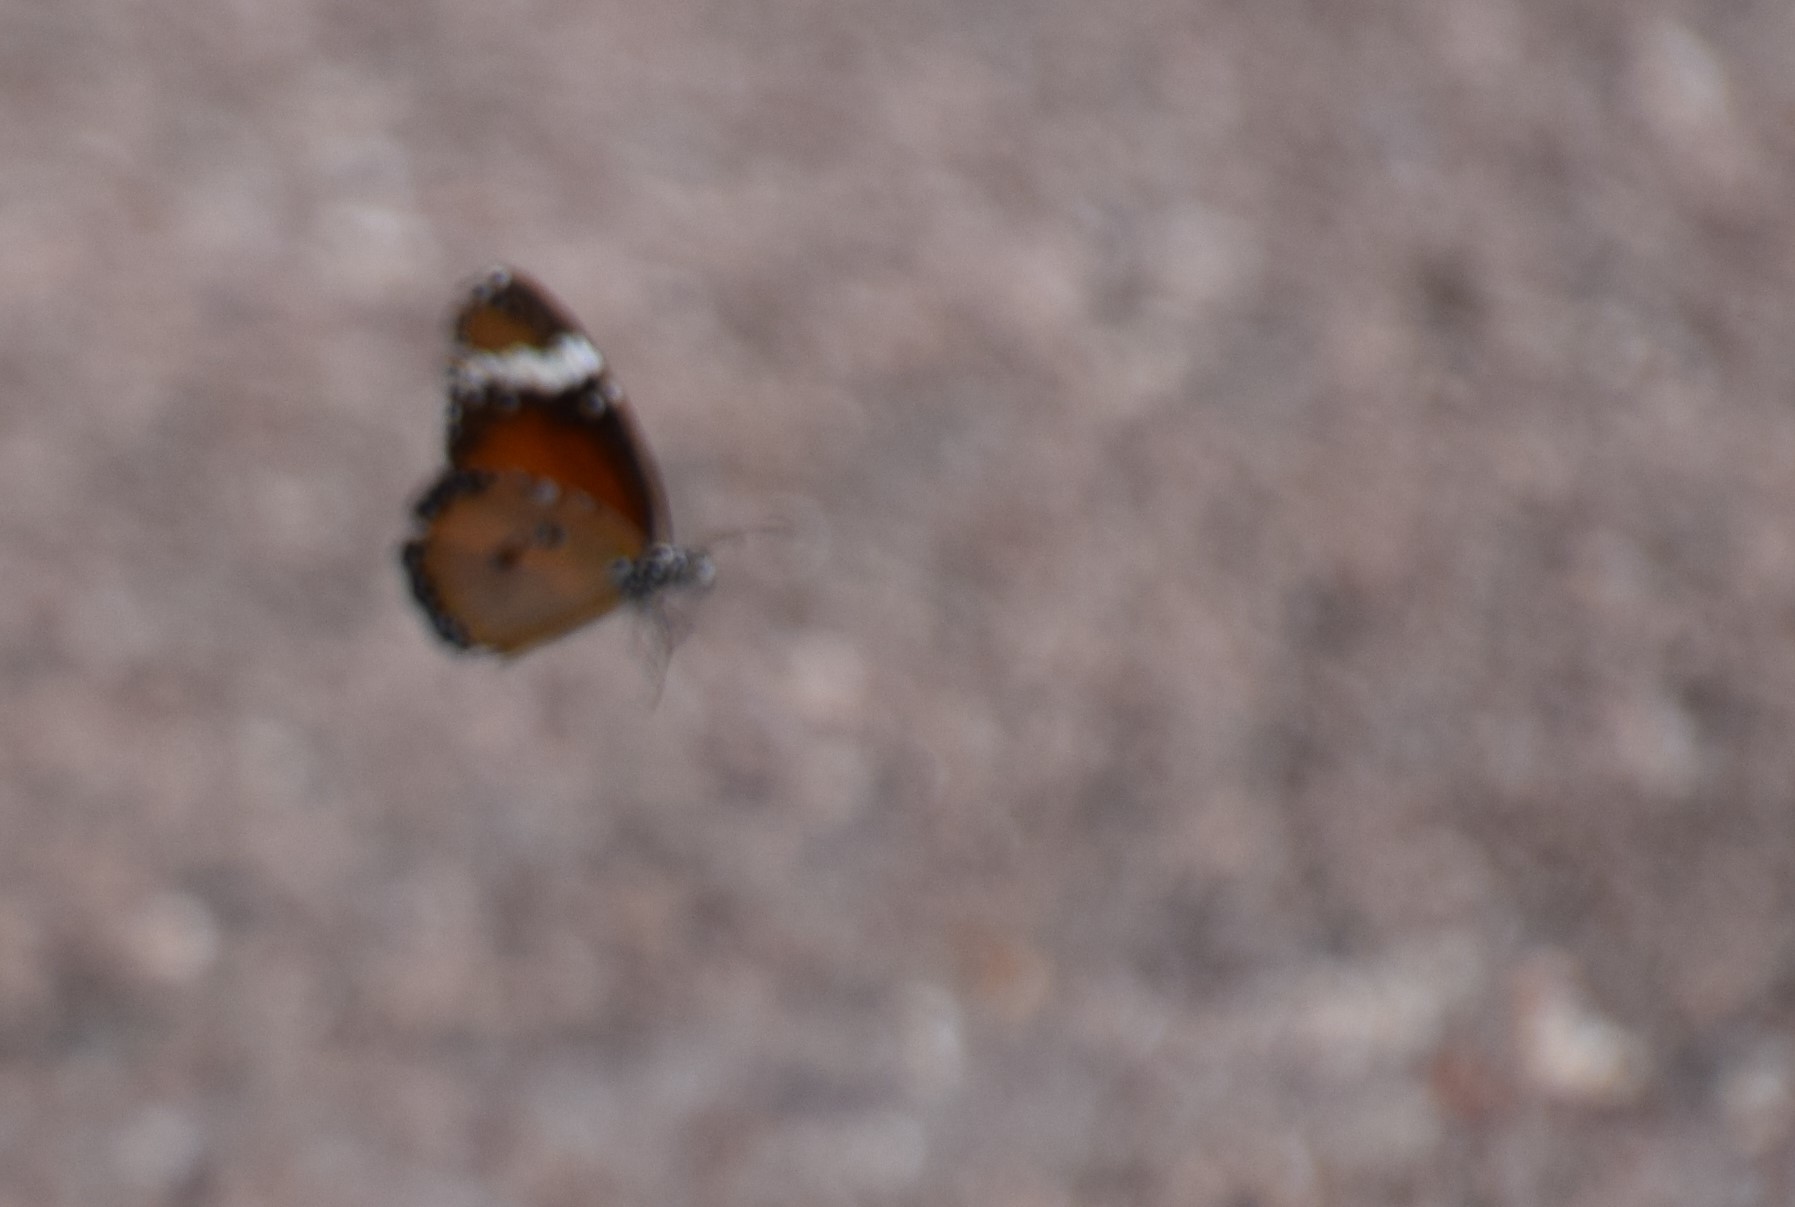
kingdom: Animalia
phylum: Arthropoda
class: Insecta
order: Lepidoptera
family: Nymphalidae
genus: Danaus
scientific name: Danaus chrysippus
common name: Plain tiger
